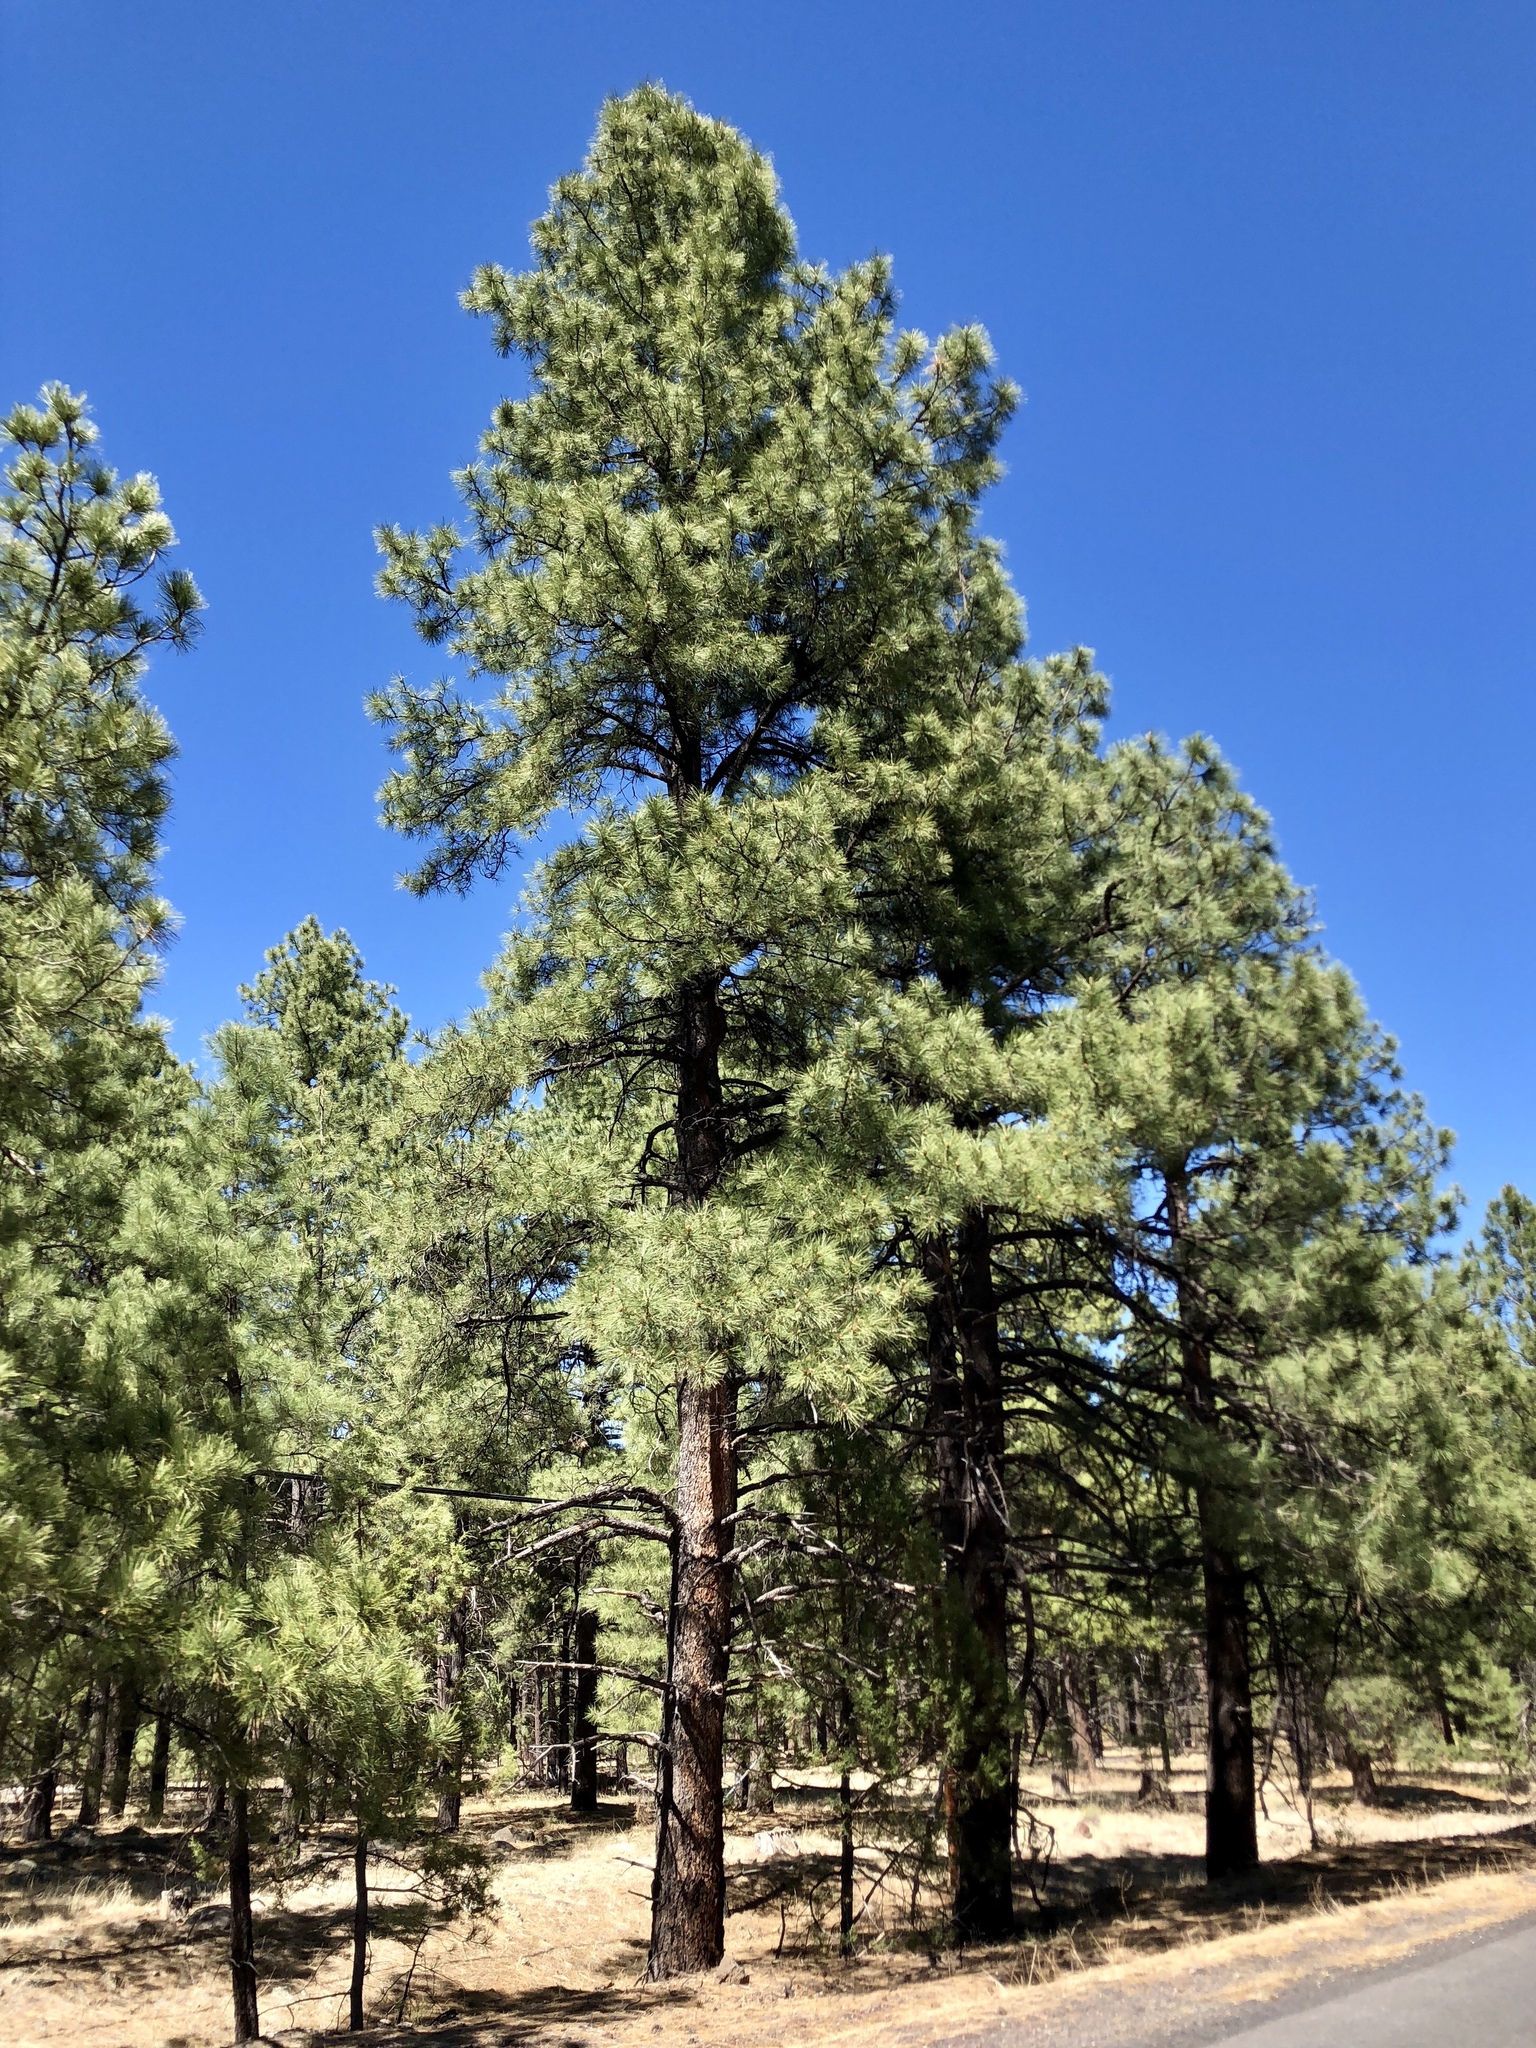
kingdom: Plantae
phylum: Tracheophyta
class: Pinopsida
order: Pinales
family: Pinaceae
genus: Pinus
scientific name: Pinus ponderosa
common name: Western yellow-pine
